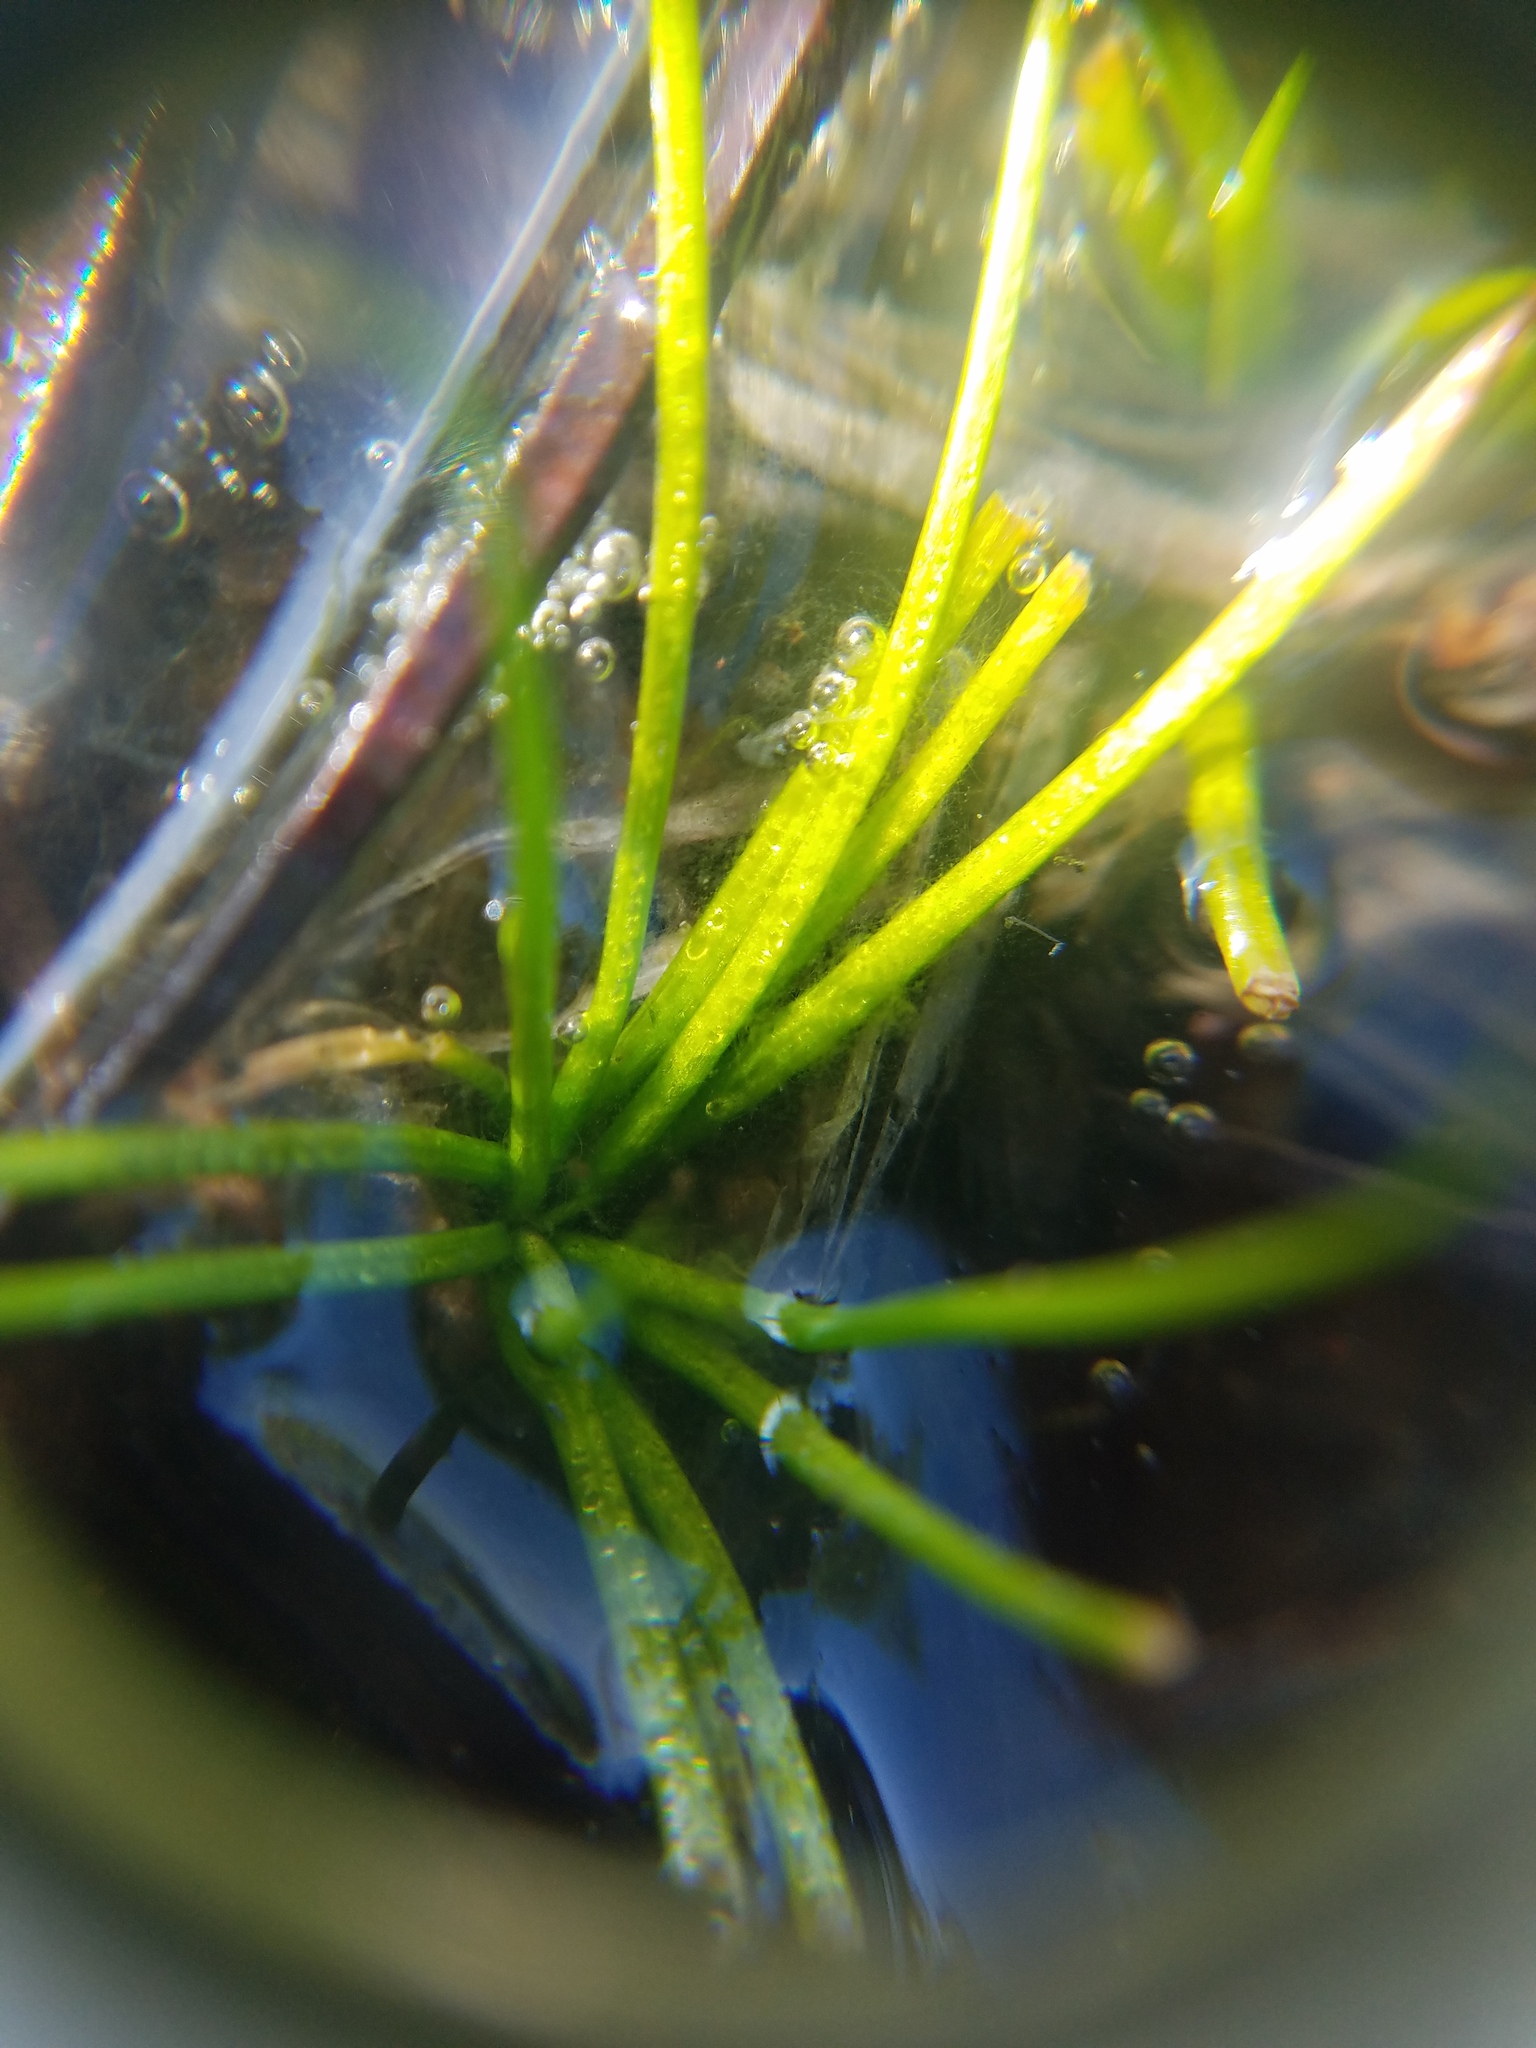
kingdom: Plantae
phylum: Tracheophyta
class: Lycopodiopsida
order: Isoetales
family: Isoetaceae
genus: Isoetes
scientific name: Isoetes melanospora
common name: Black-spore quillwort
